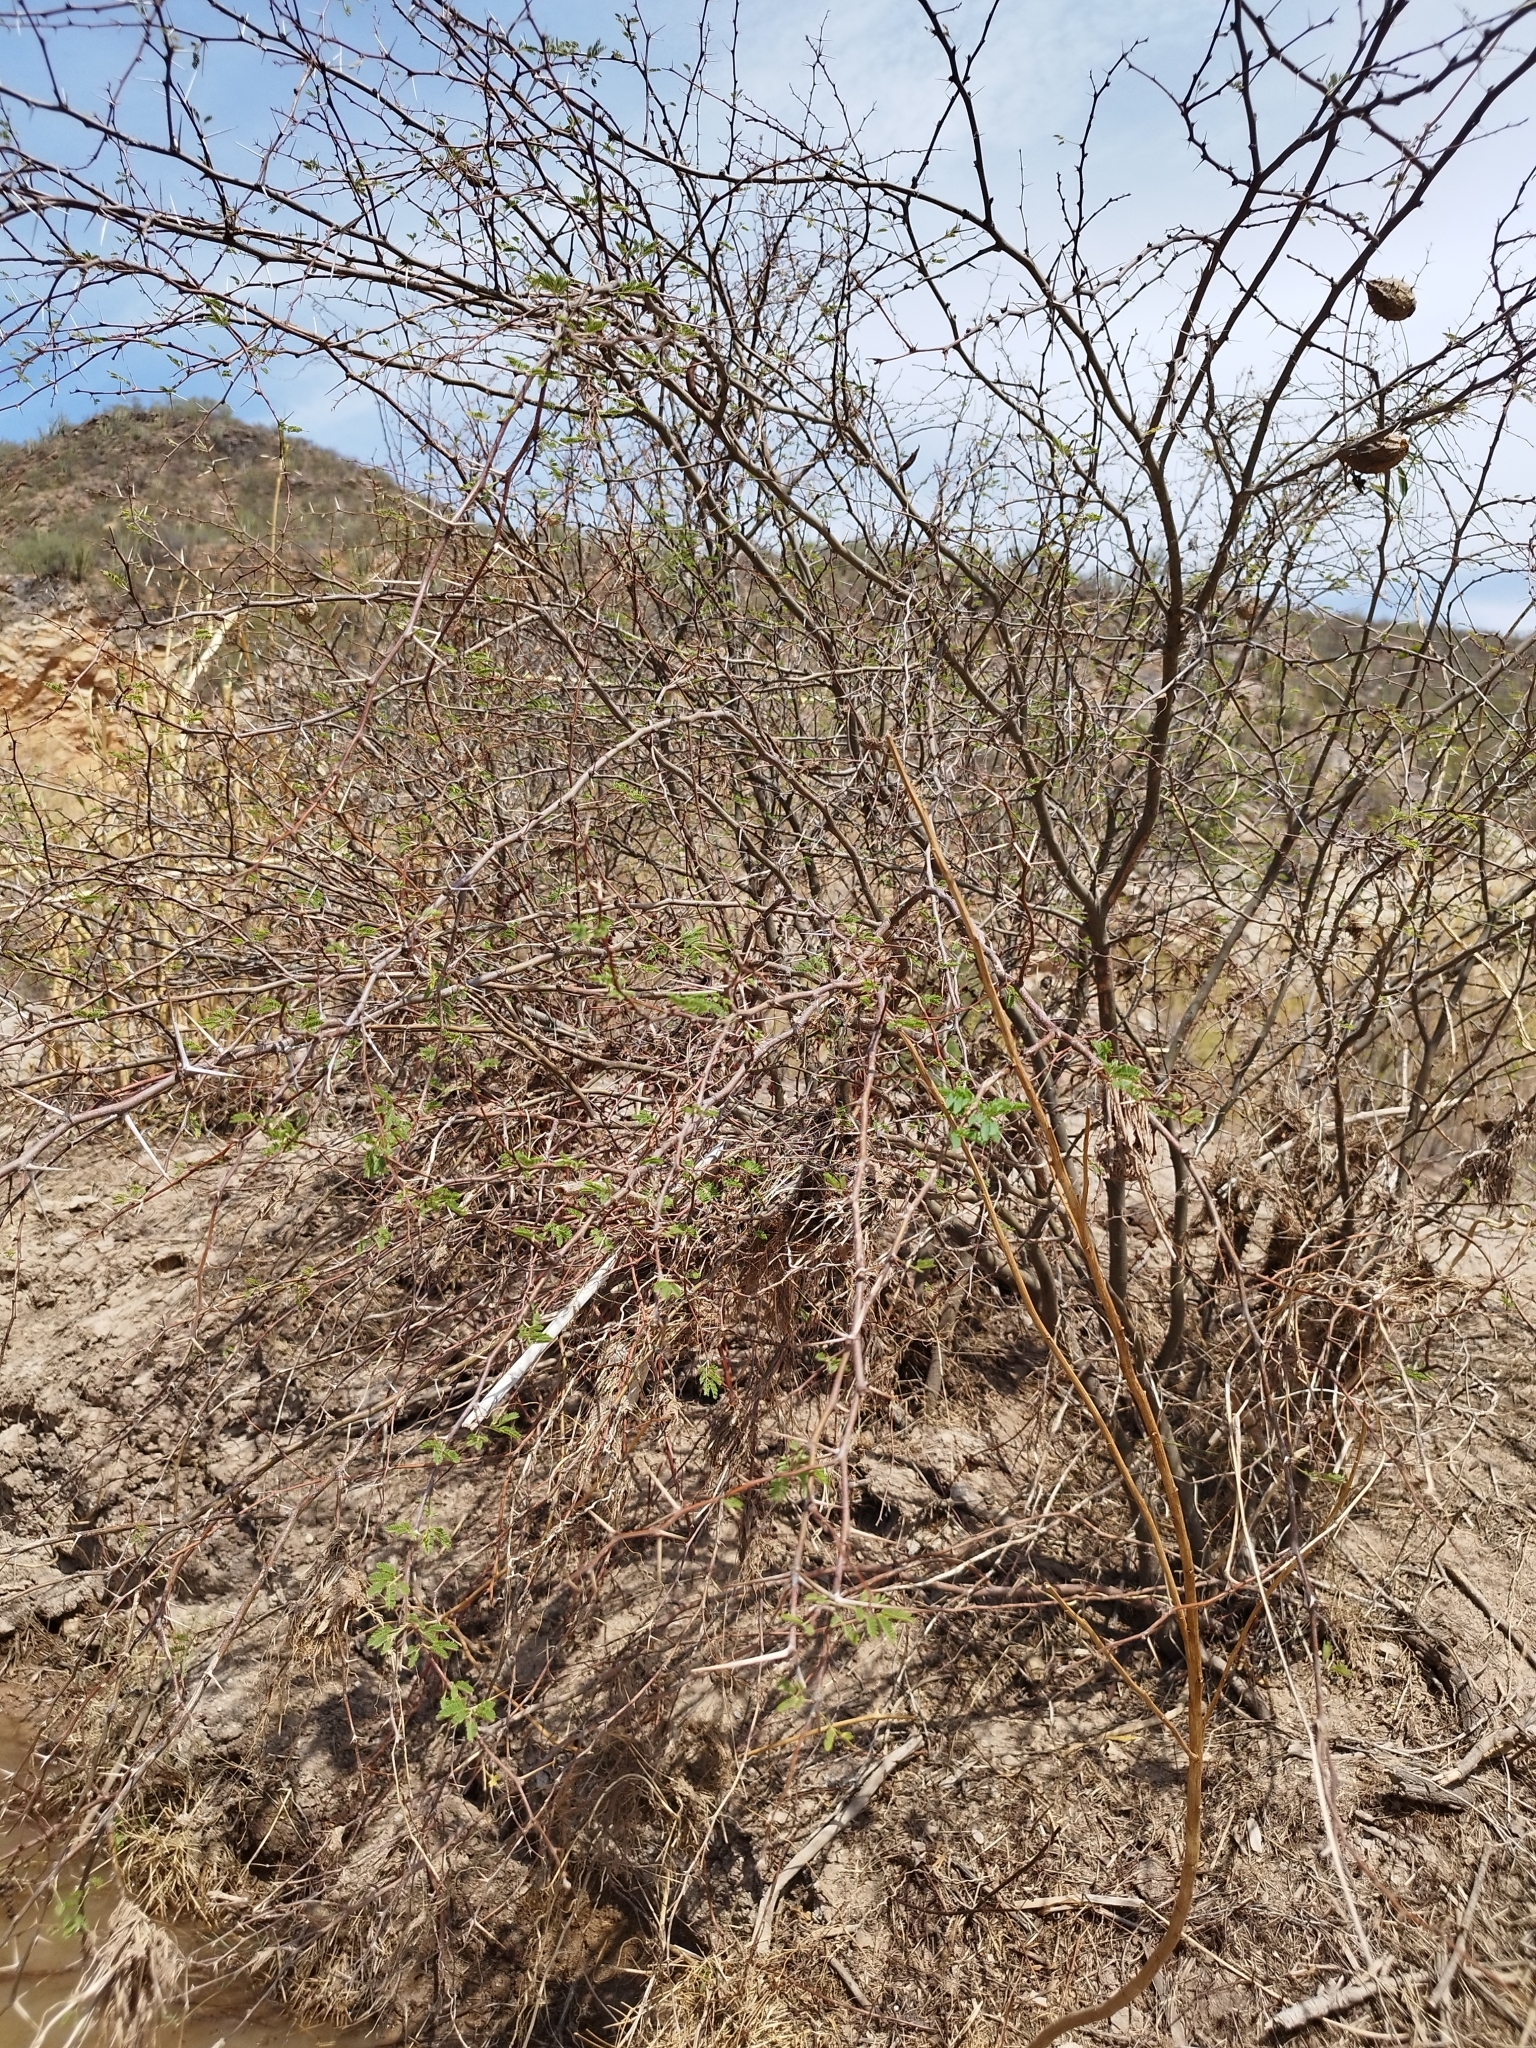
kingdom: Plantae
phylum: Tracheophyta
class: Magnoliopsida
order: Fabales
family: Fabaceae
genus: Vachellia
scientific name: Vachellia farnesiana
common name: Sweet acacia
